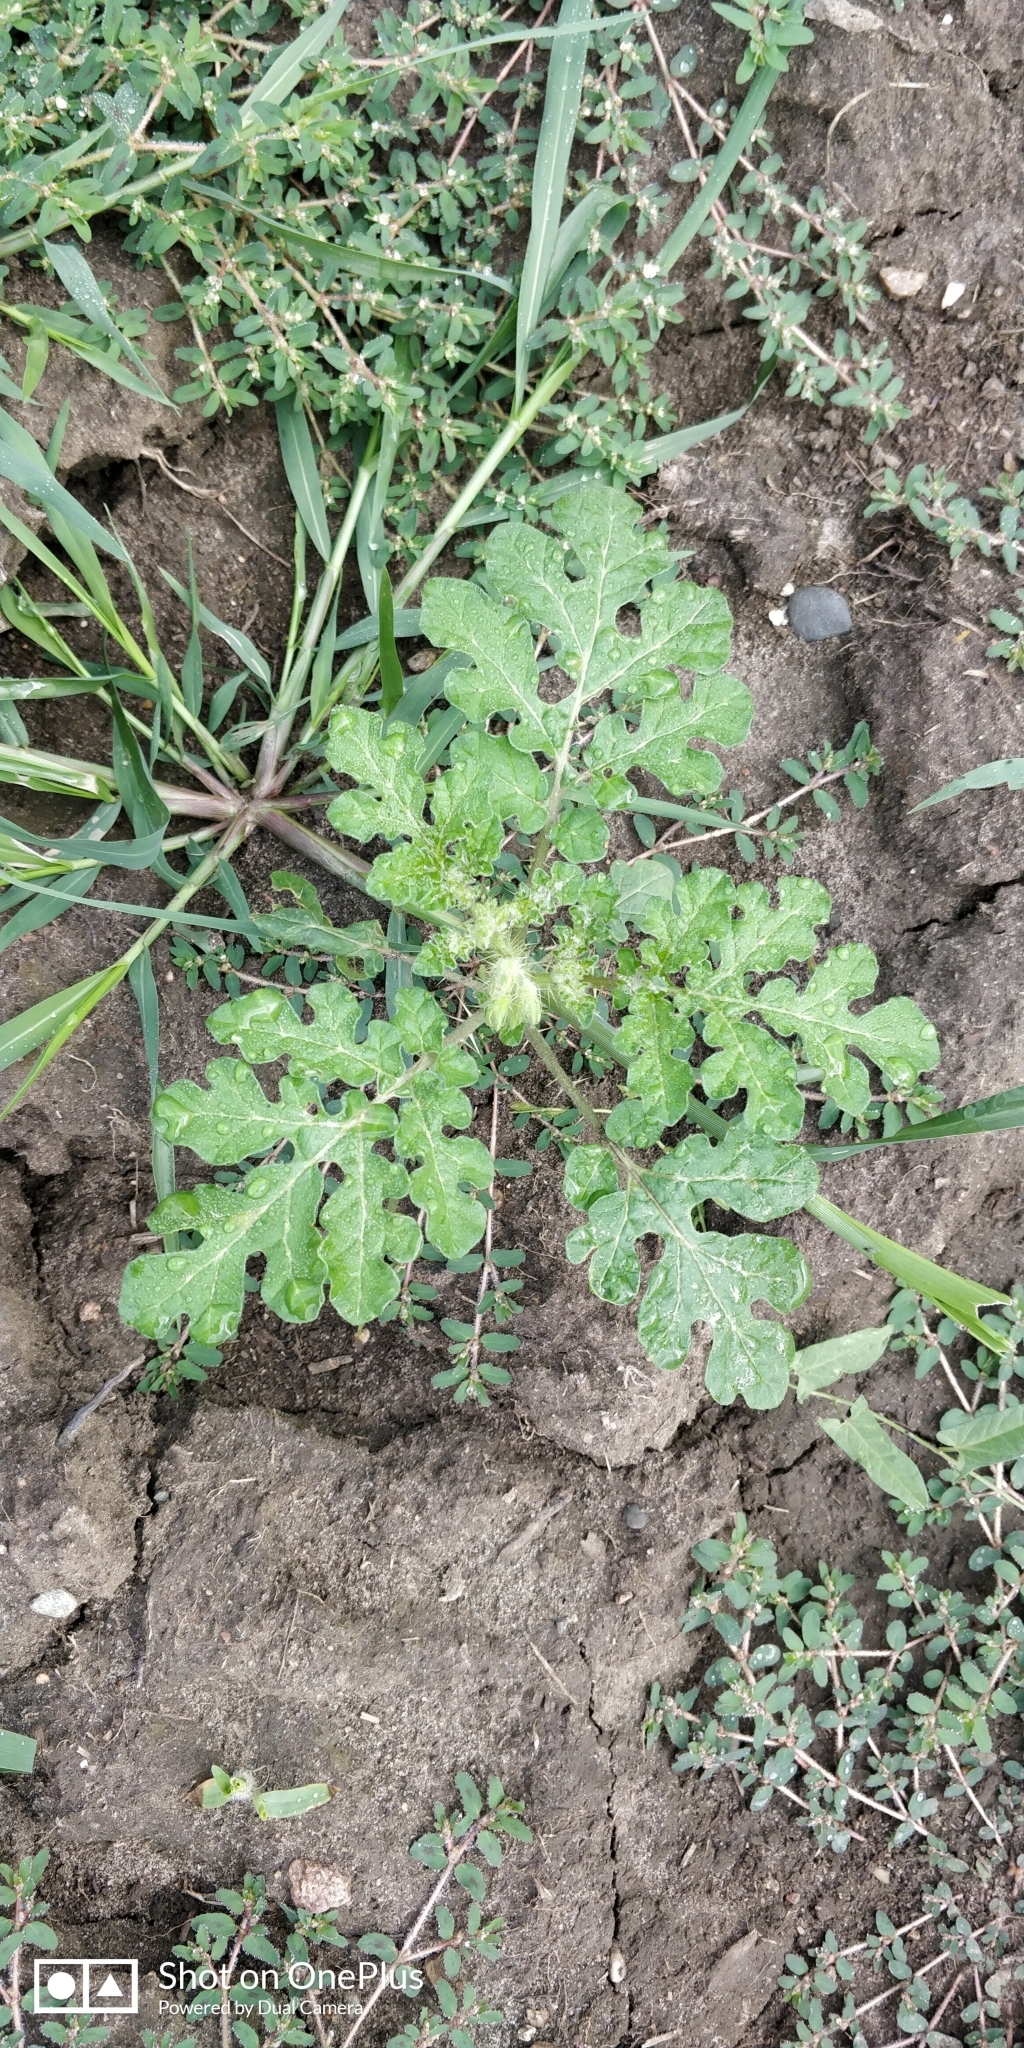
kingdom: Plantae
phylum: Tracheophyta
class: Magnoliopsida
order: Solanales
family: Solanaceae
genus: Solanum
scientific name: Solanum angustifolium
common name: Buffalobur nightshade
